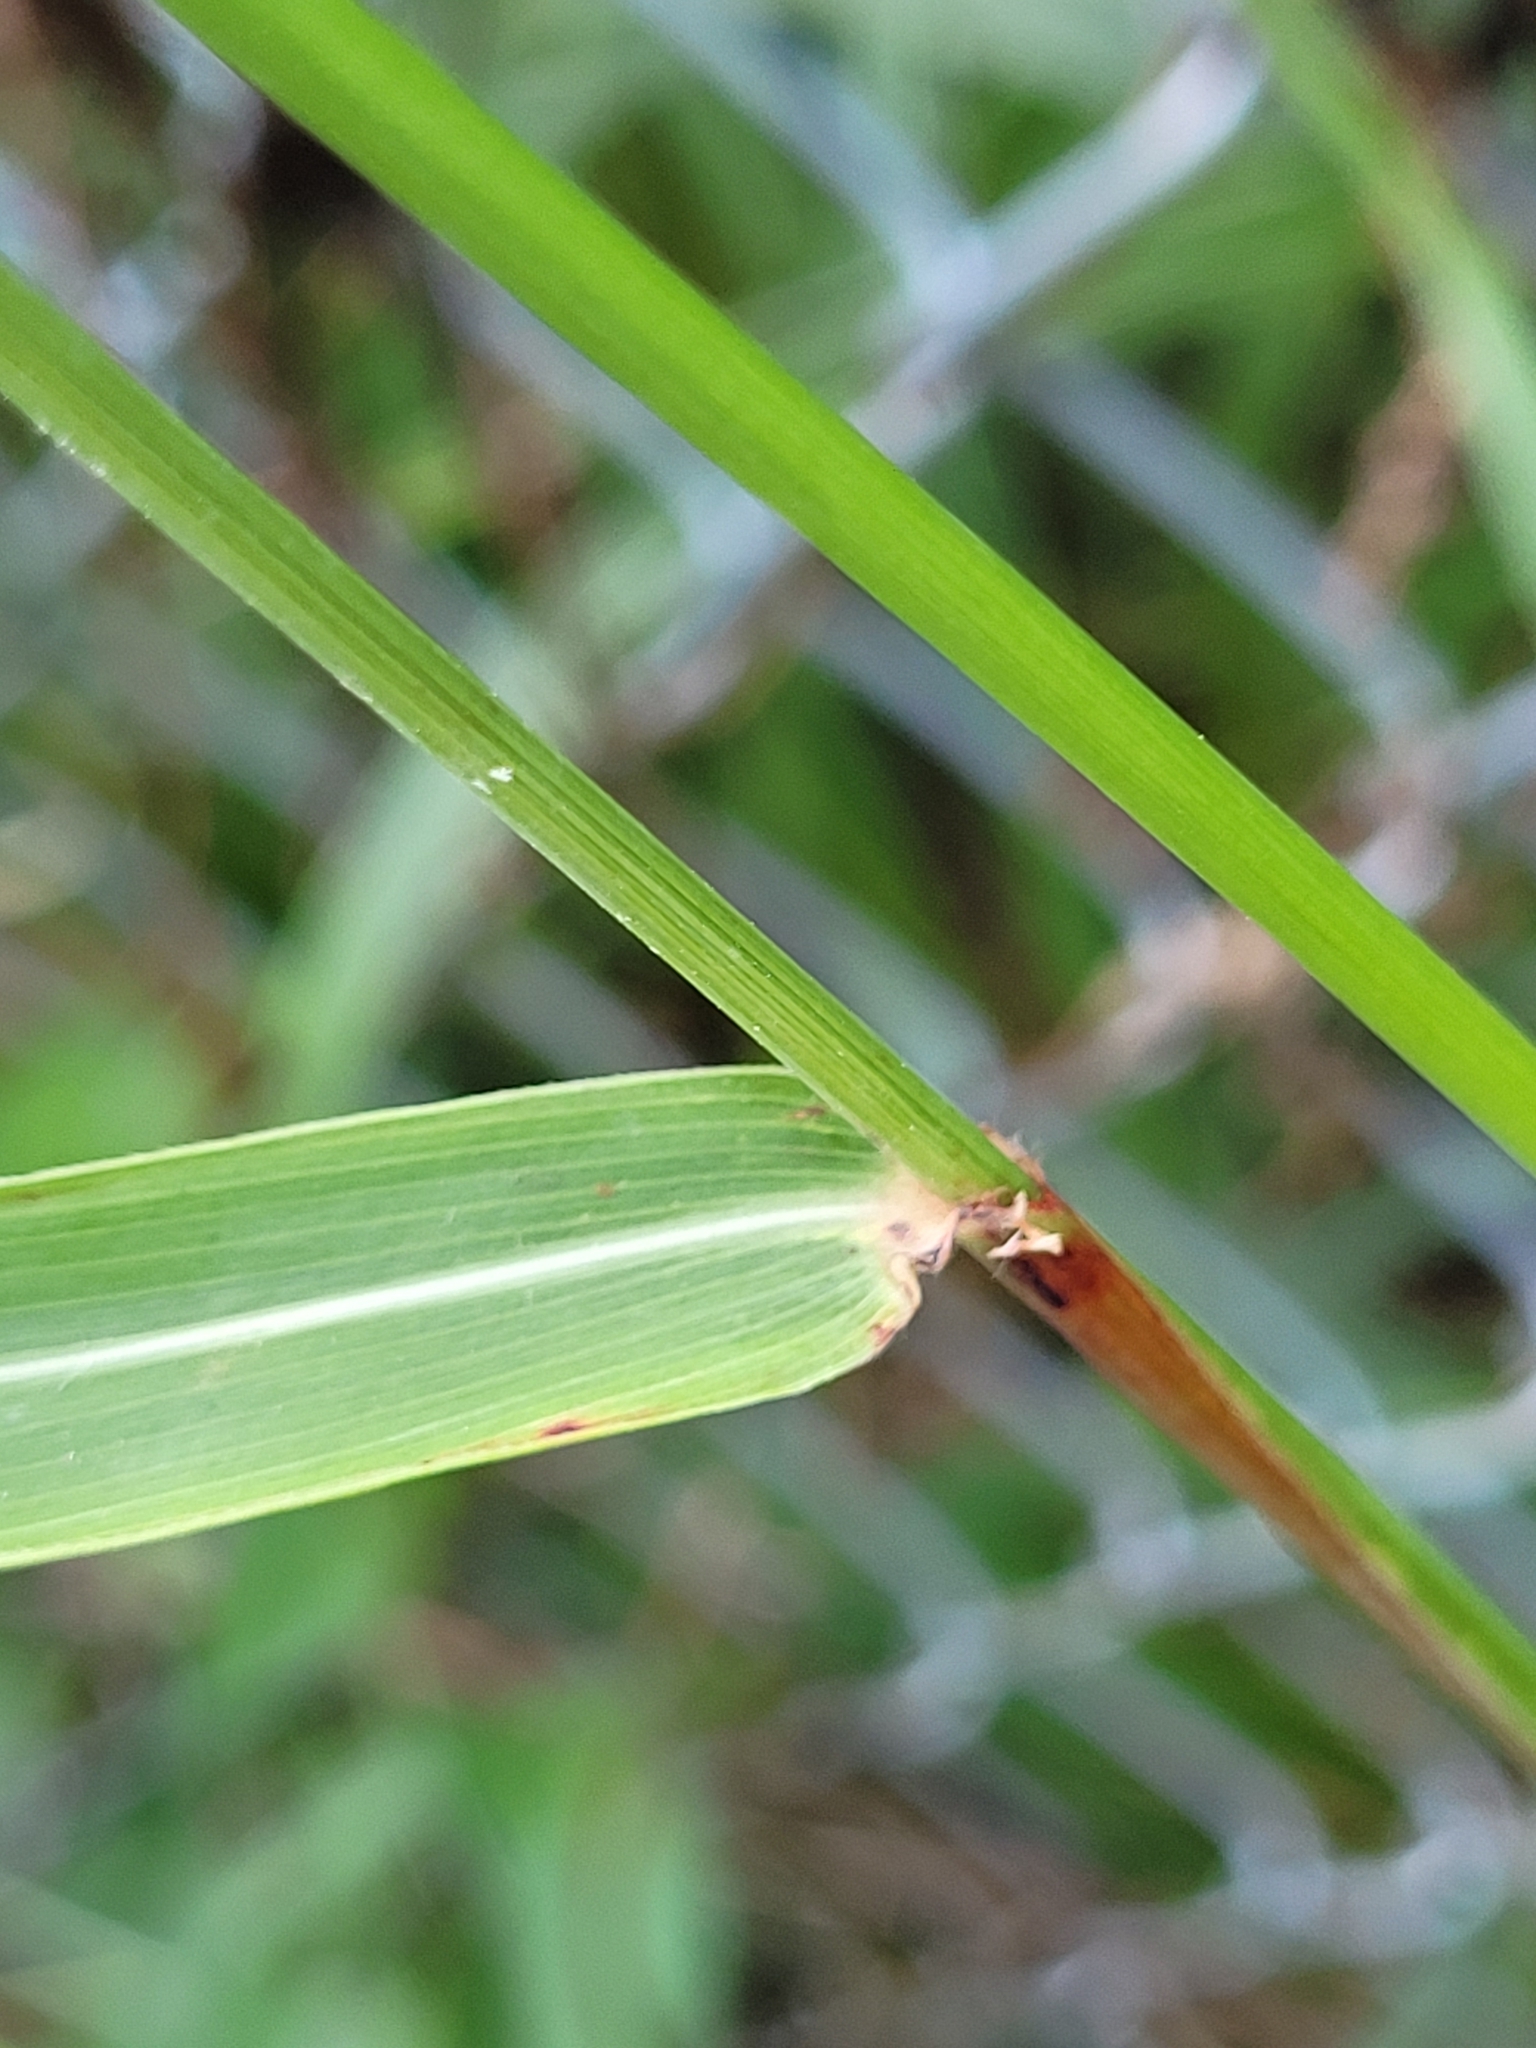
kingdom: Plantae
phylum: Tracheophyta
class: Liliopsida
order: Poales
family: Poaceae
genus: Sorghum
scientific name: Sorghum halepense
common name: Johnson-grass
